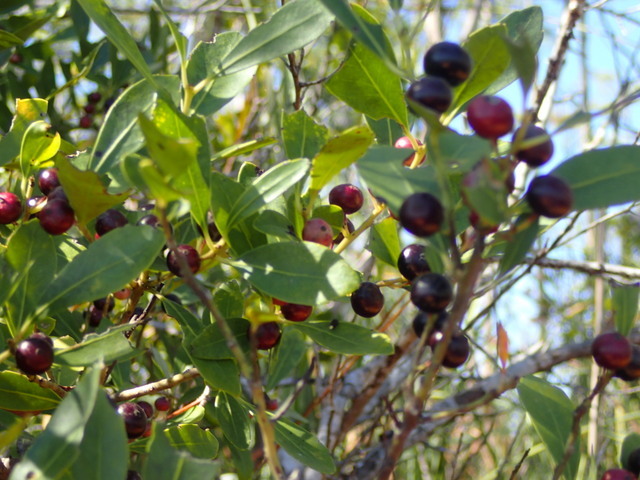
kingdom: Plantae
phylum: Tracheophyta
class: Magnoliopsida
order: Aquifoliales
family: Aquifoliaceae
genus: Ilex
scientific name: Ilex glabra
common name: Bitter gallberry
